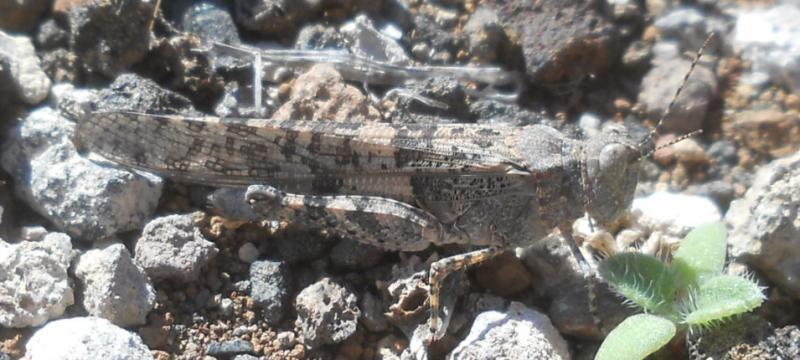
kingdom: Animalia
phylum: Arthropoda
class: Insecta
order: Orthoptera
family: Acrididae
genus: Sphingonotus
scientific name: Sphingonotus rubescens
